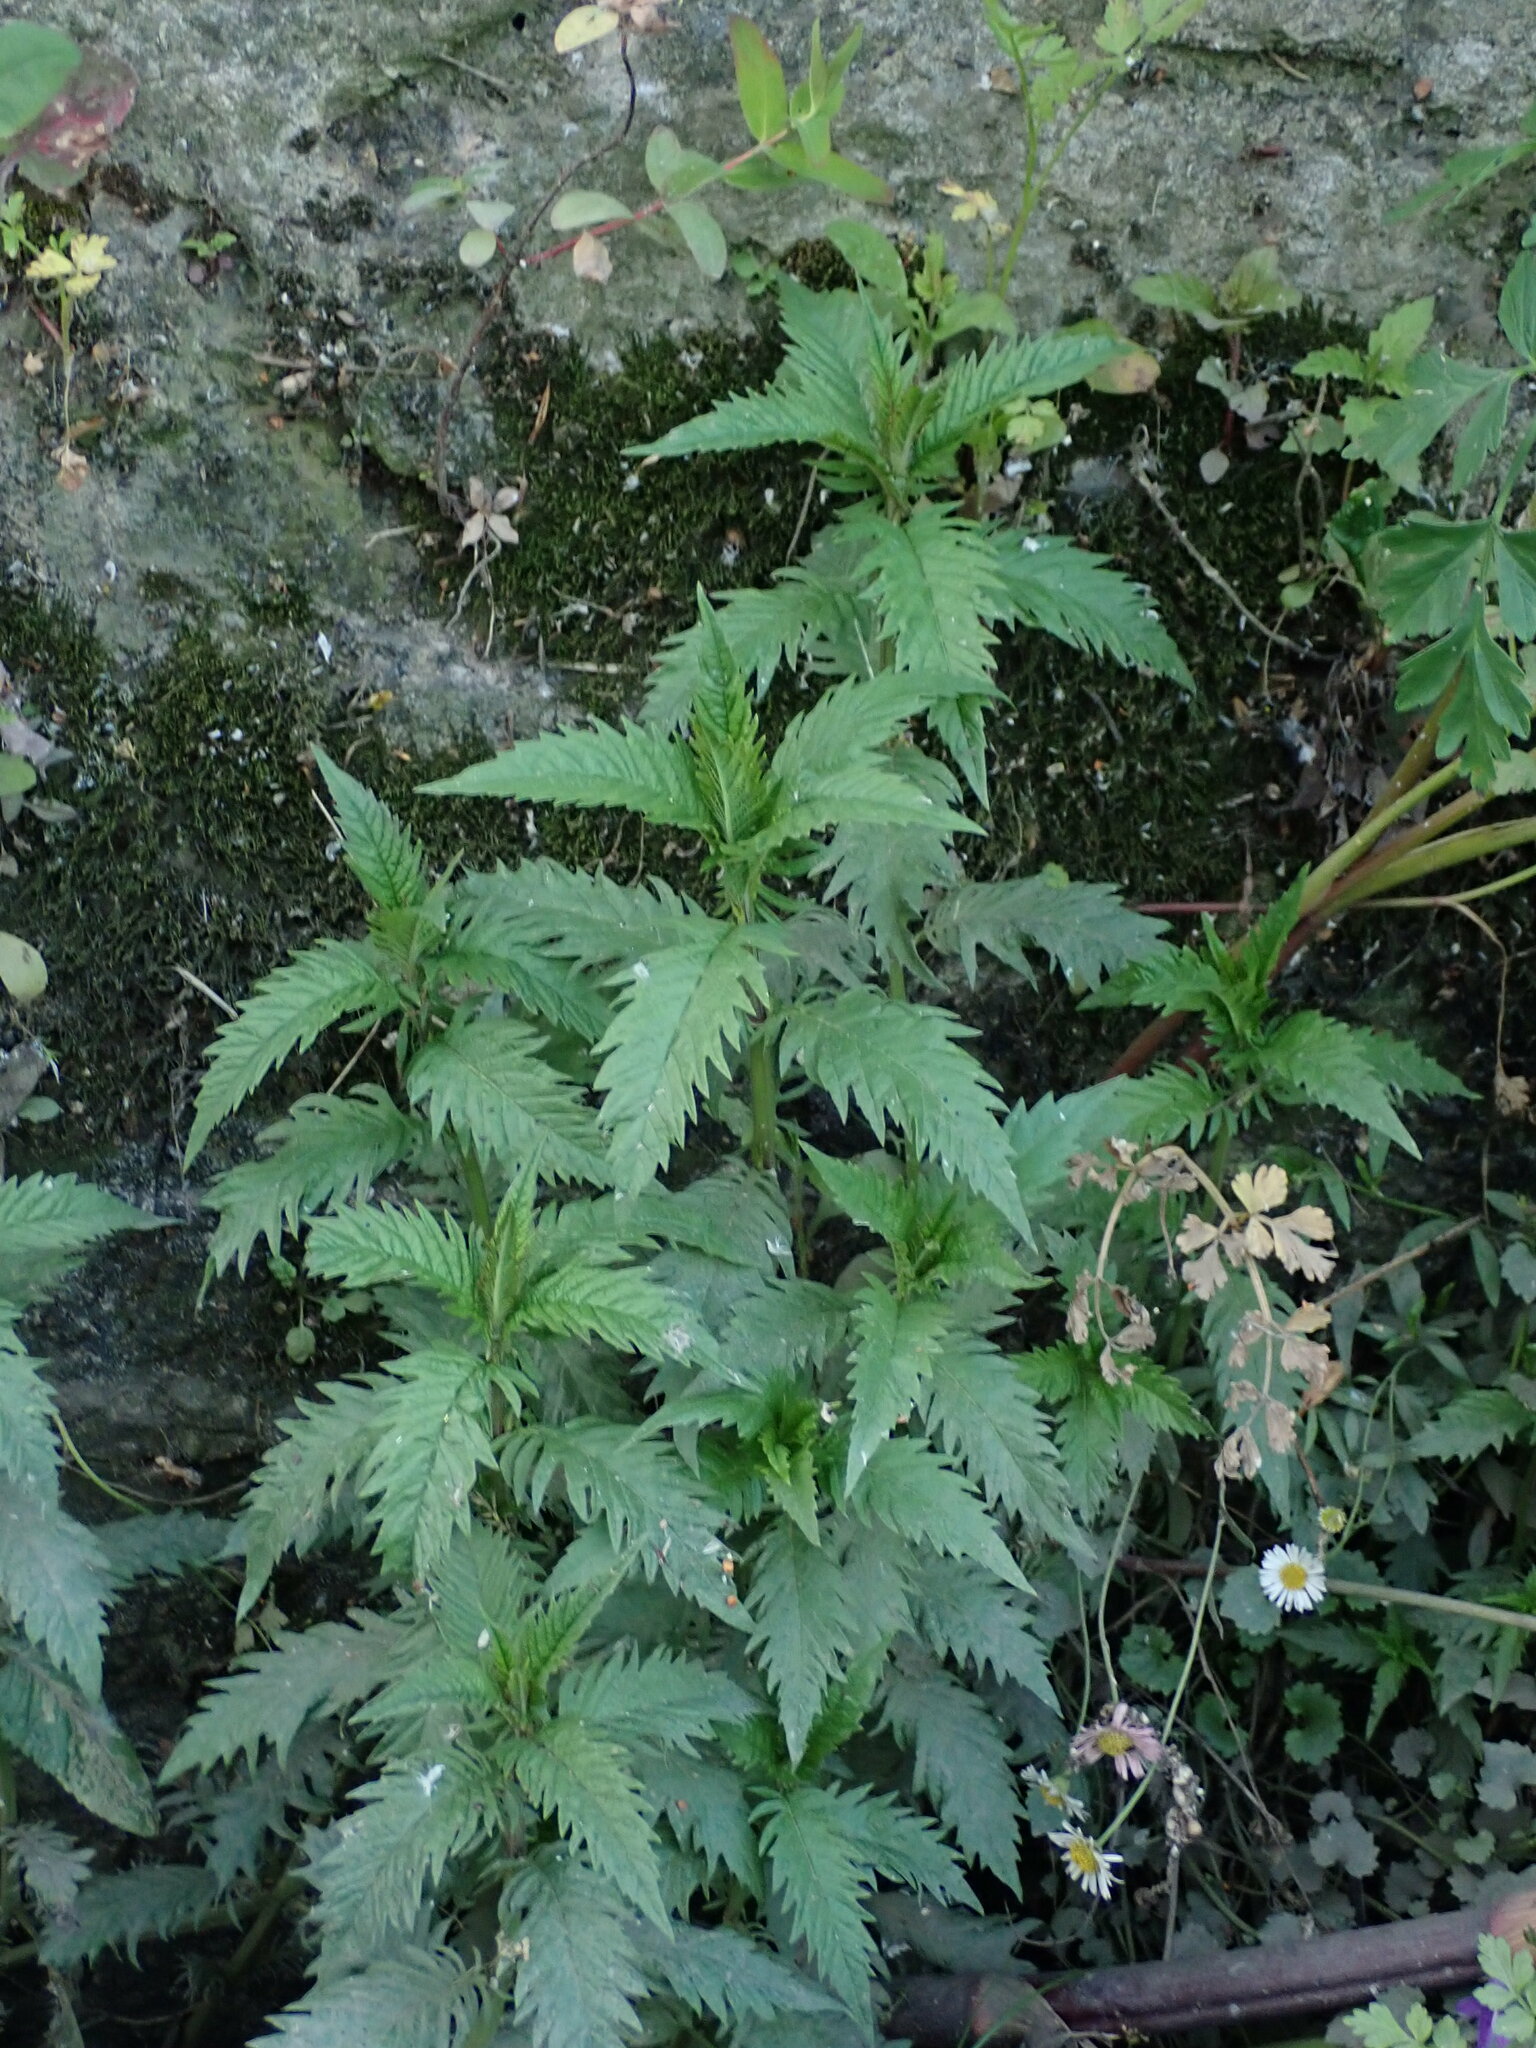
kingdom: Plantae
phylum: Tracheophyta
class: Magnoliopsida
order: Lamiales
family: Lamiaceae
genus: Lycopus
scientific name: Lycopus europaeus
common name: European bugleweed
